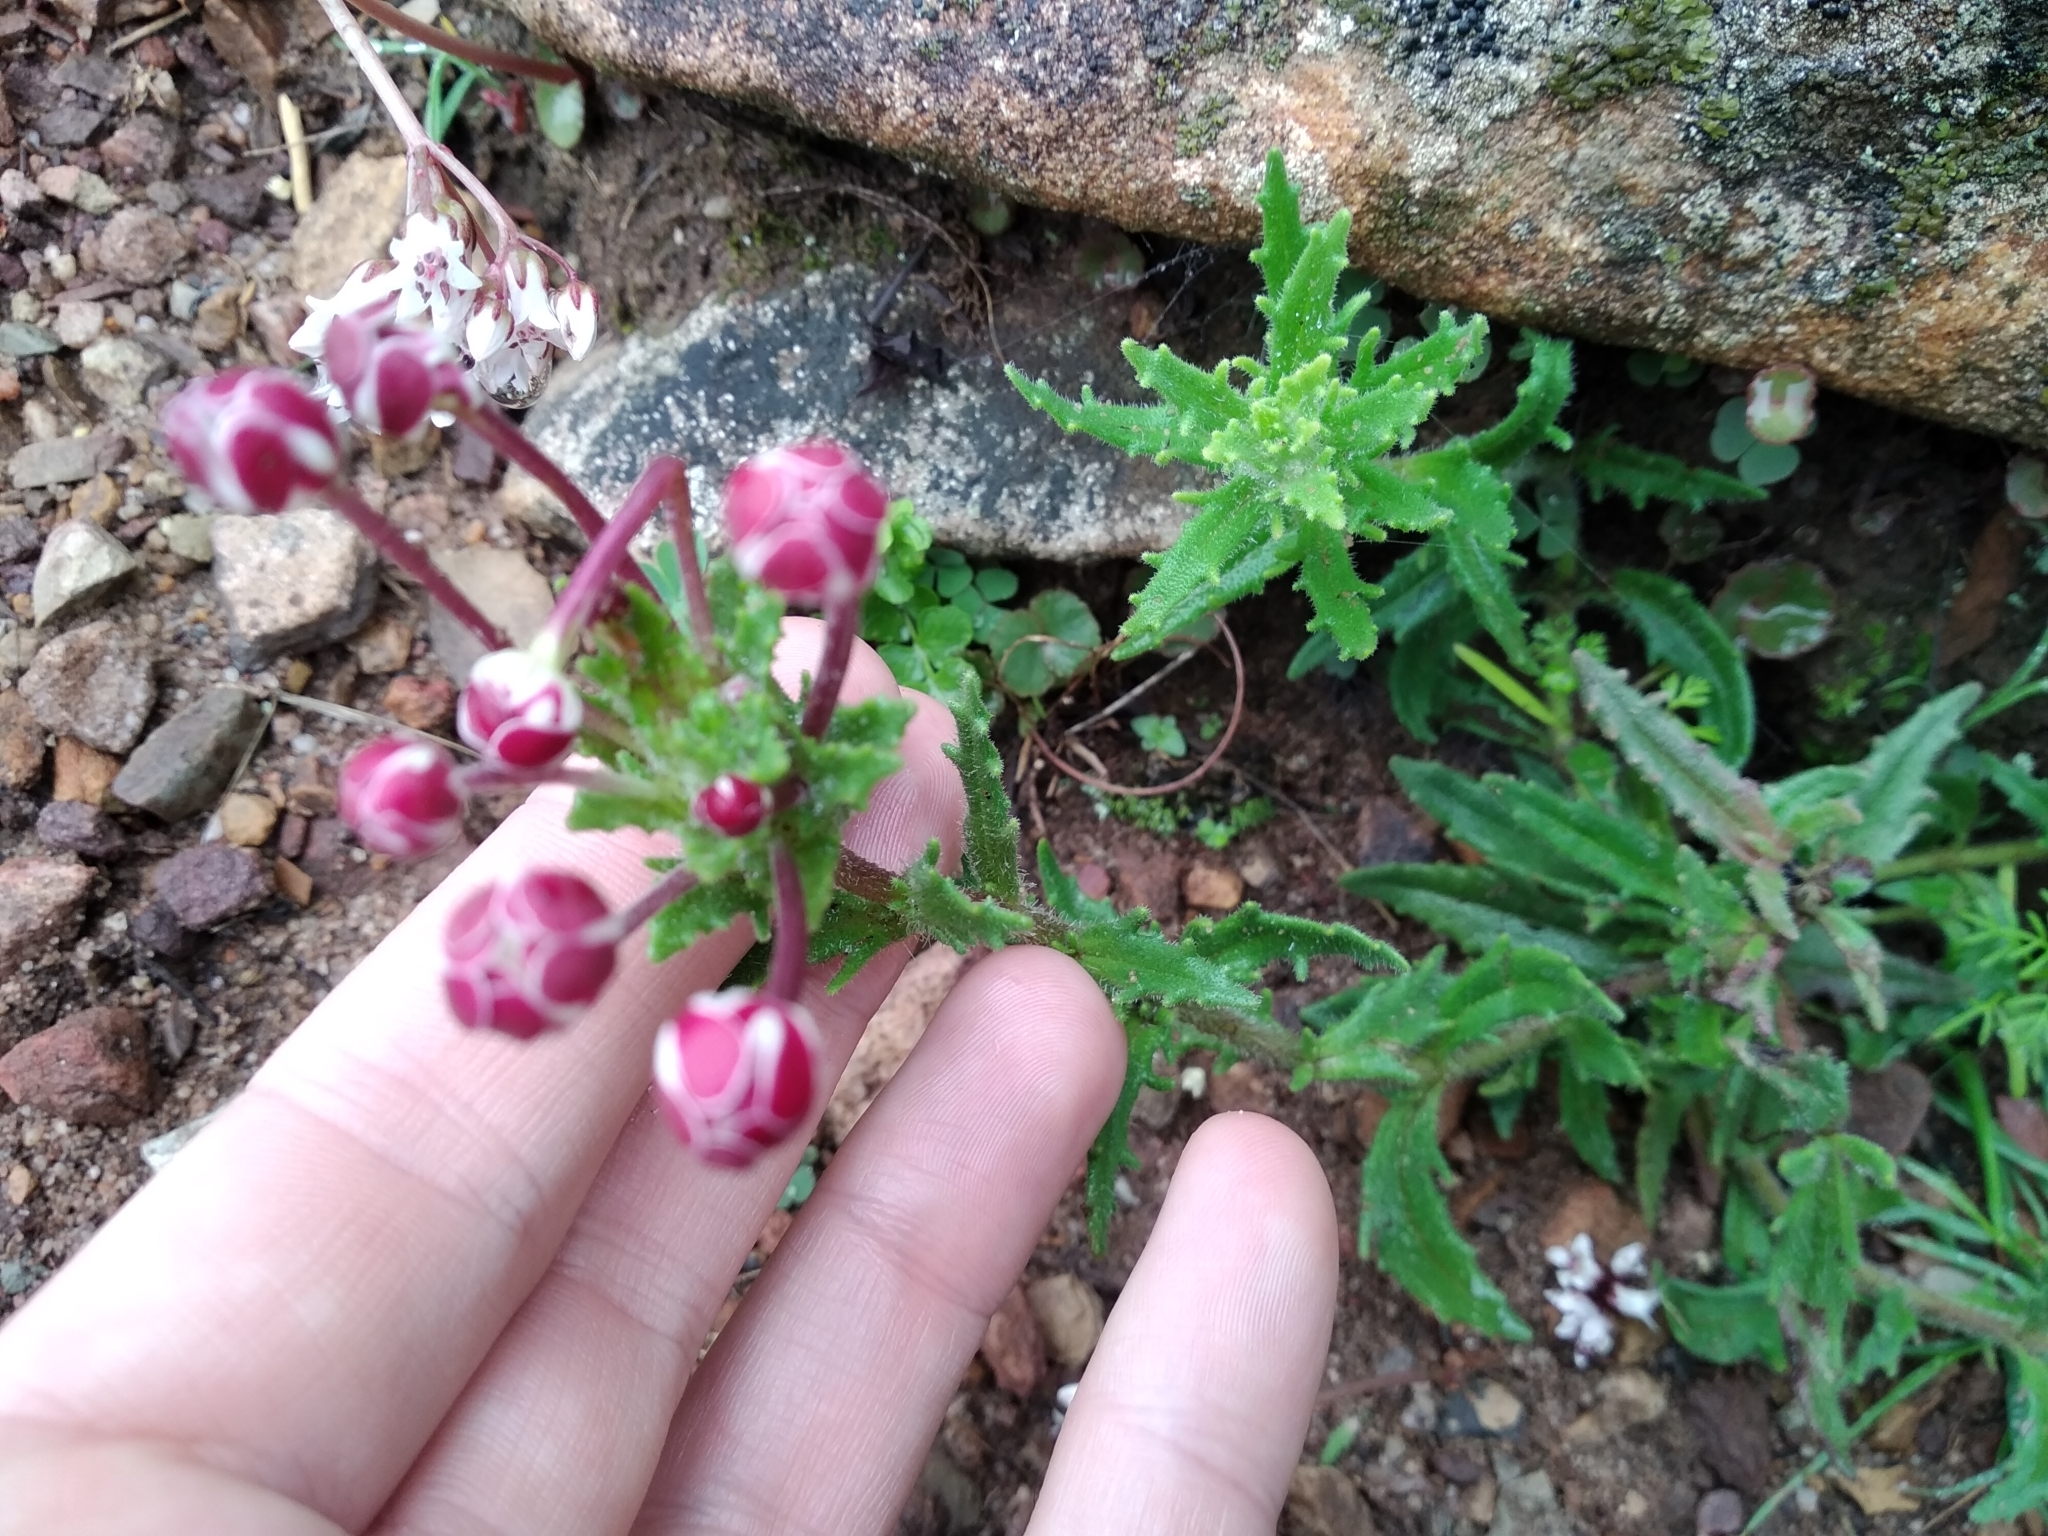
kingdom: Plantae
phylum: Tracheophyta
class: Magnoliopsida
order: Lamiales
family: Scrophulariaceae
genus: Zaluzianskya
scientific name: Zaluzianskya capensis
